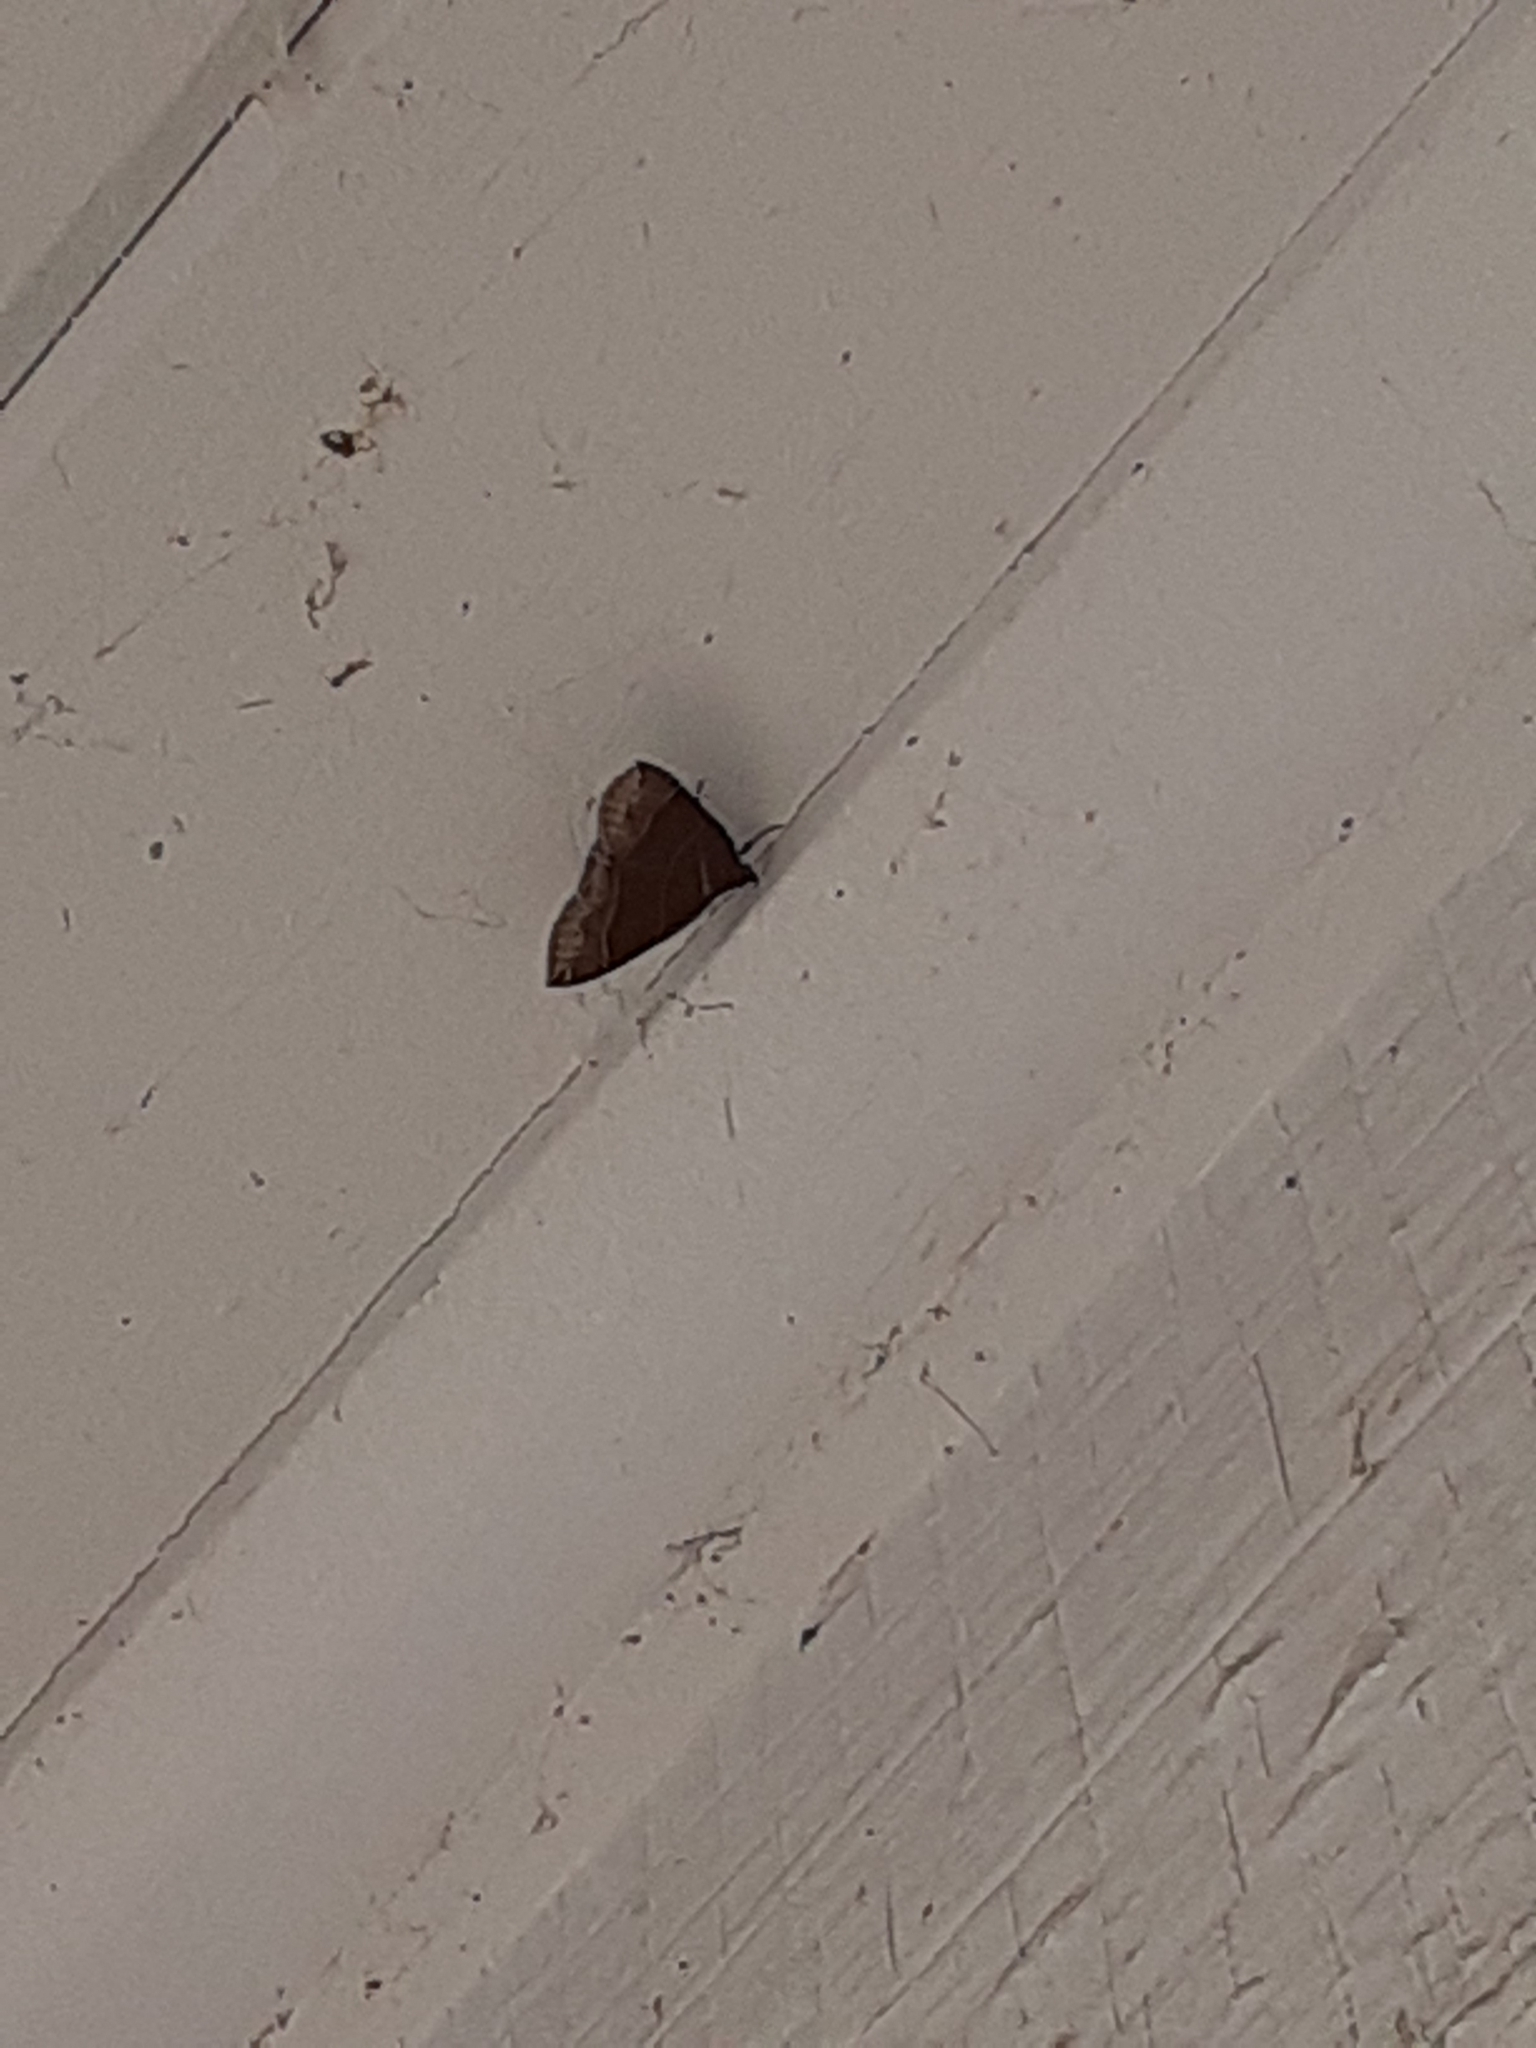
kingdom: Animalia
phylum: Arthropoda
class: Insecta
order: Lepidoptera
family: Erebidae
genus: Parallelia
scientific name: Parallelia bistriaris
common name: Maple looper moth
